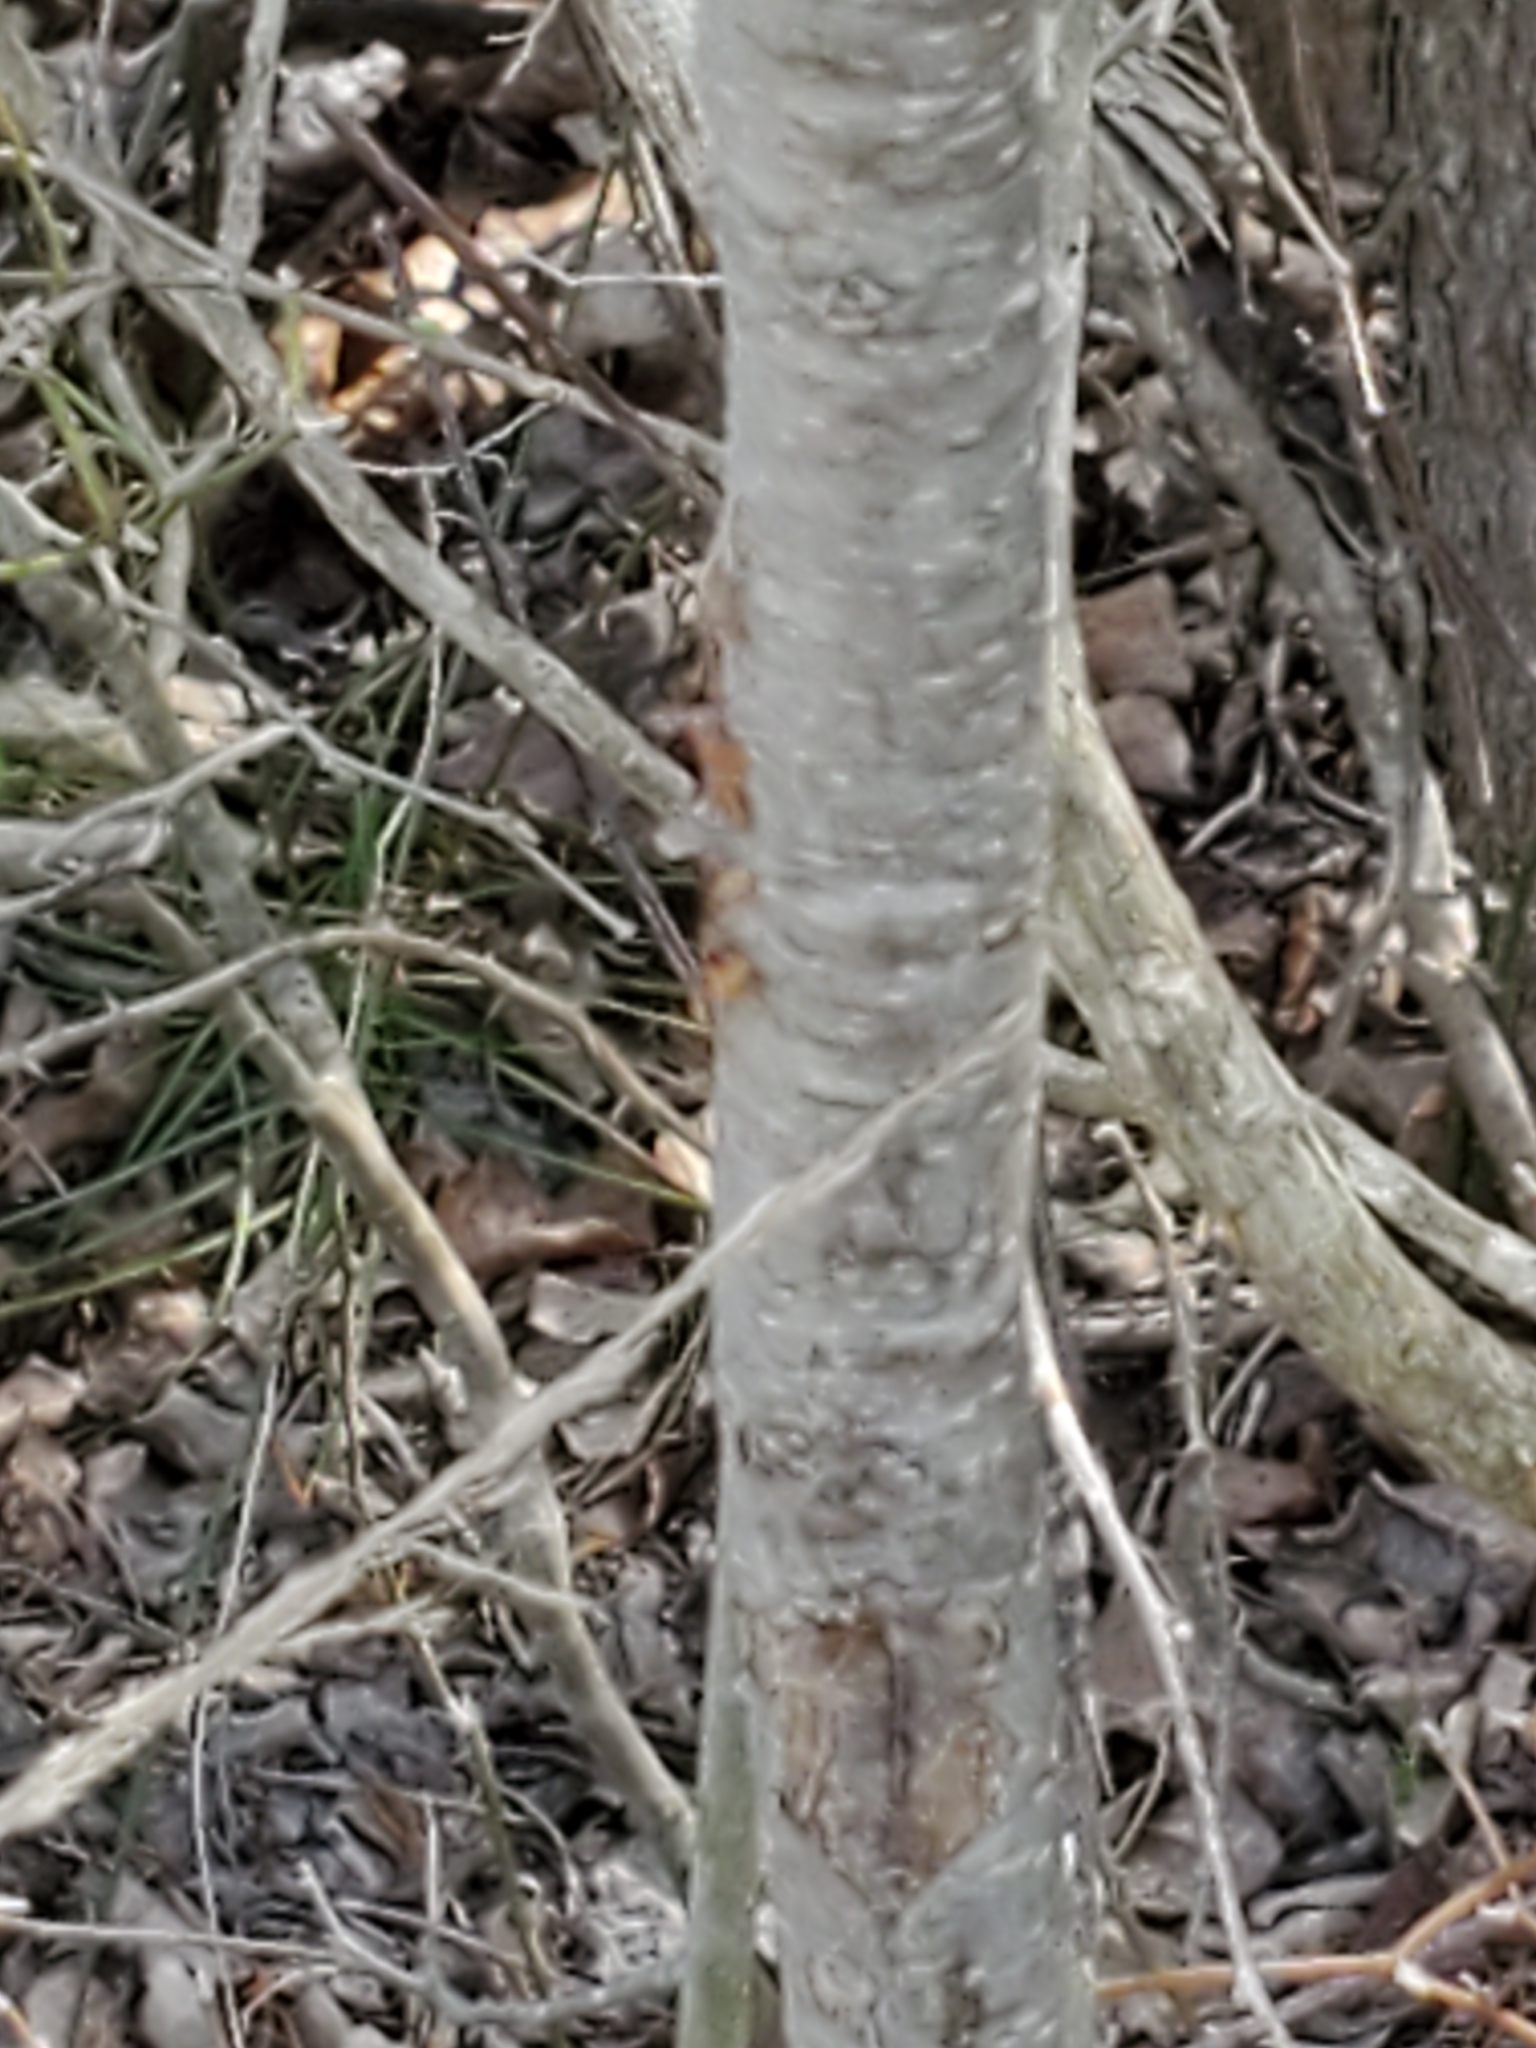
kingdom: Plantae
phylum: Tracheophyta
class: Magnoliopsida
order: Rosales
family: Rosaceae
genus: Prunus
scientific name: Prunus serotina
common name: Black cherry
